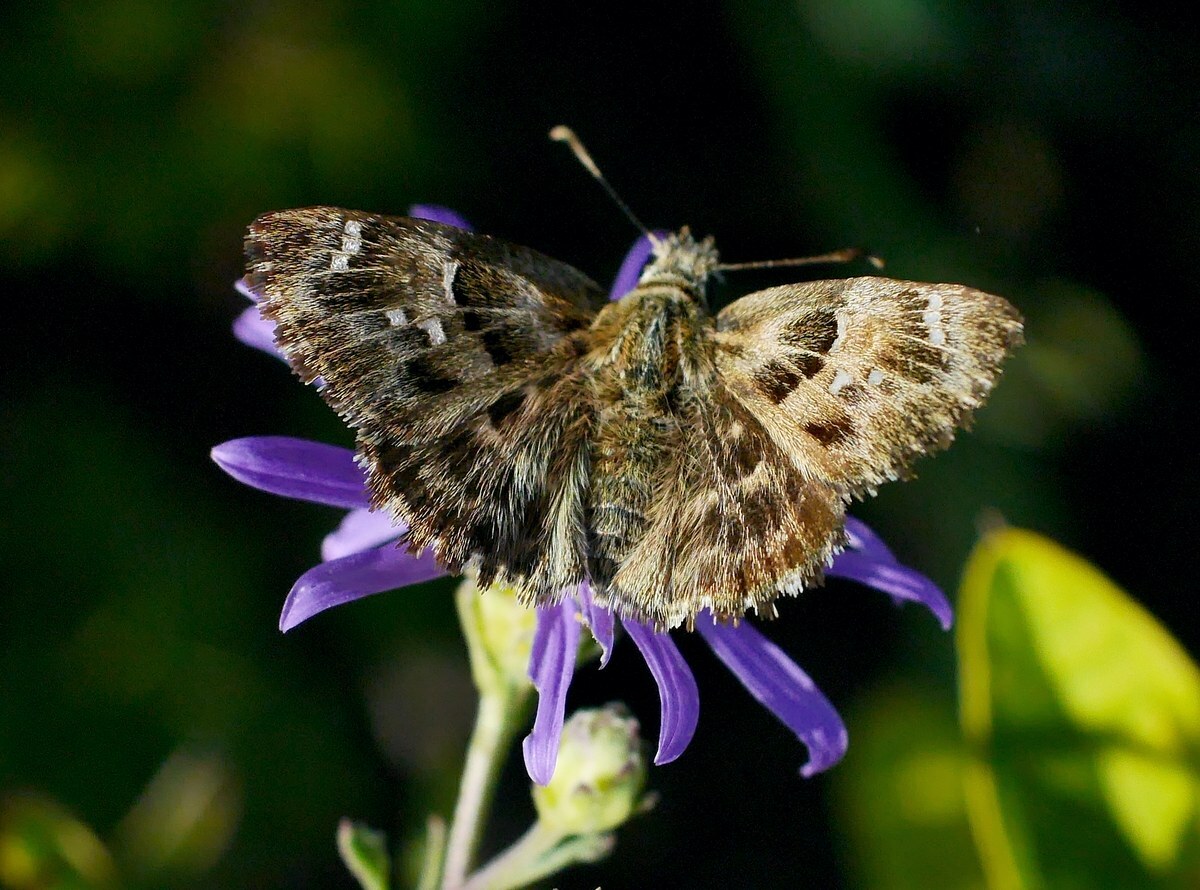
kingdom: Animalia
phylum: Arthropoda
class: Insecta
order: Lepidoptera
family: Hesperiidae
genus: Carcharodus
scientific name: Carcharodus alceae
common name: Mallow skipper
